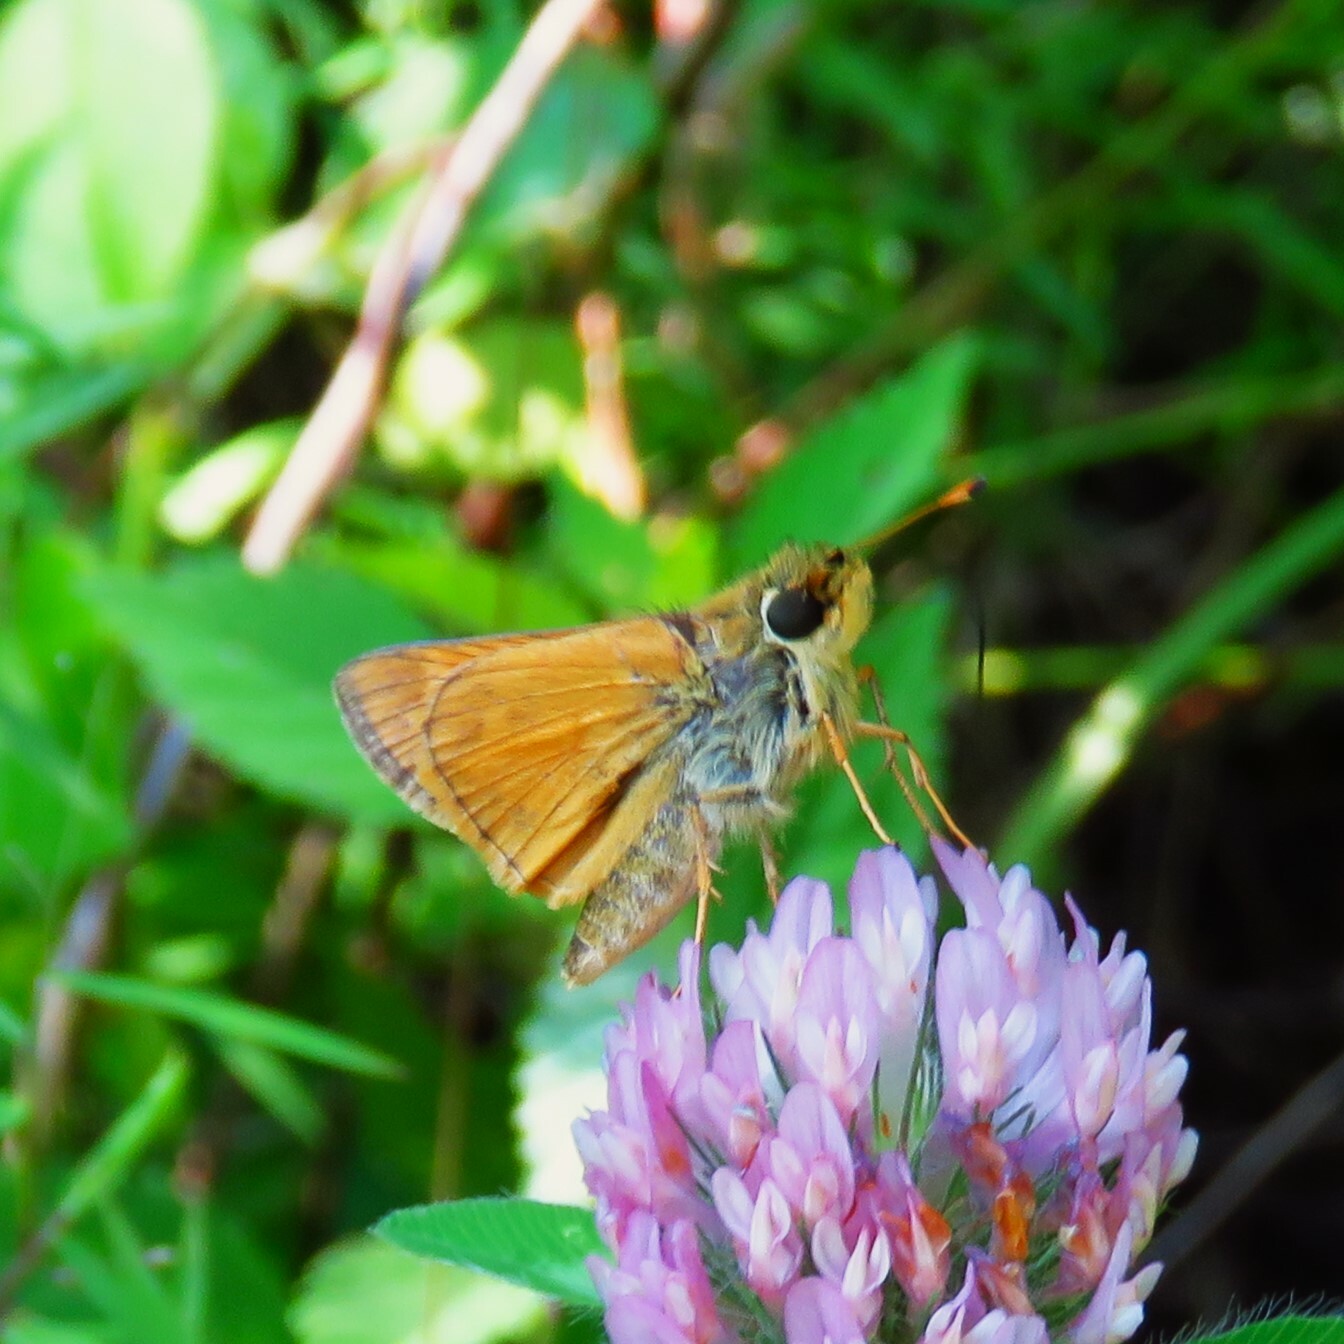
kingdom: Animalia
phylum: Arthropoda
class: Insecta
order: Lepidoptera
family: Hesperiidae
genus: Atalopedes
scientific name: Atalopedes
